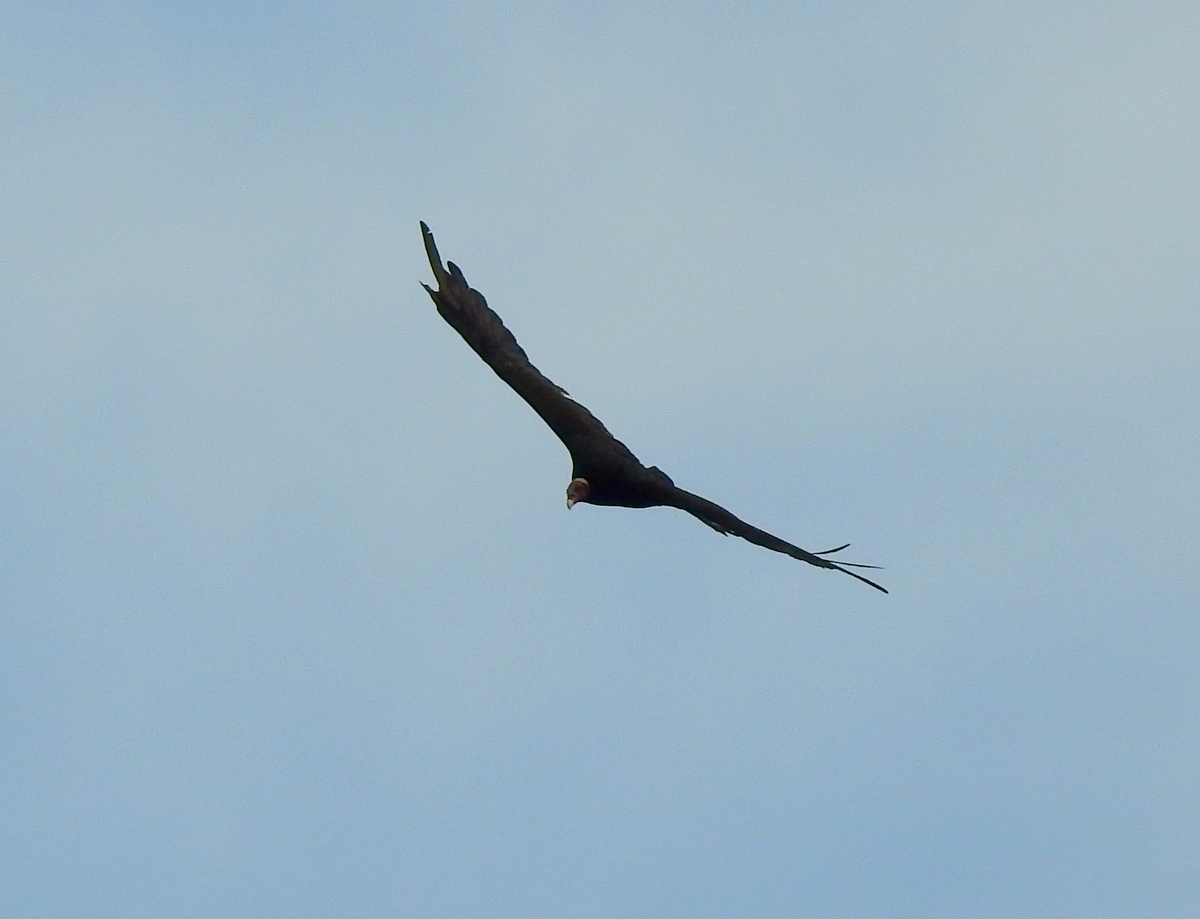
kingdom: Animalia
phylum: Chordata
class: Aves
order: Accipitriformes
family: Cathartidae
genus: Cathartes
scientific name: Cathartes aura
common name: Turkey vulture
